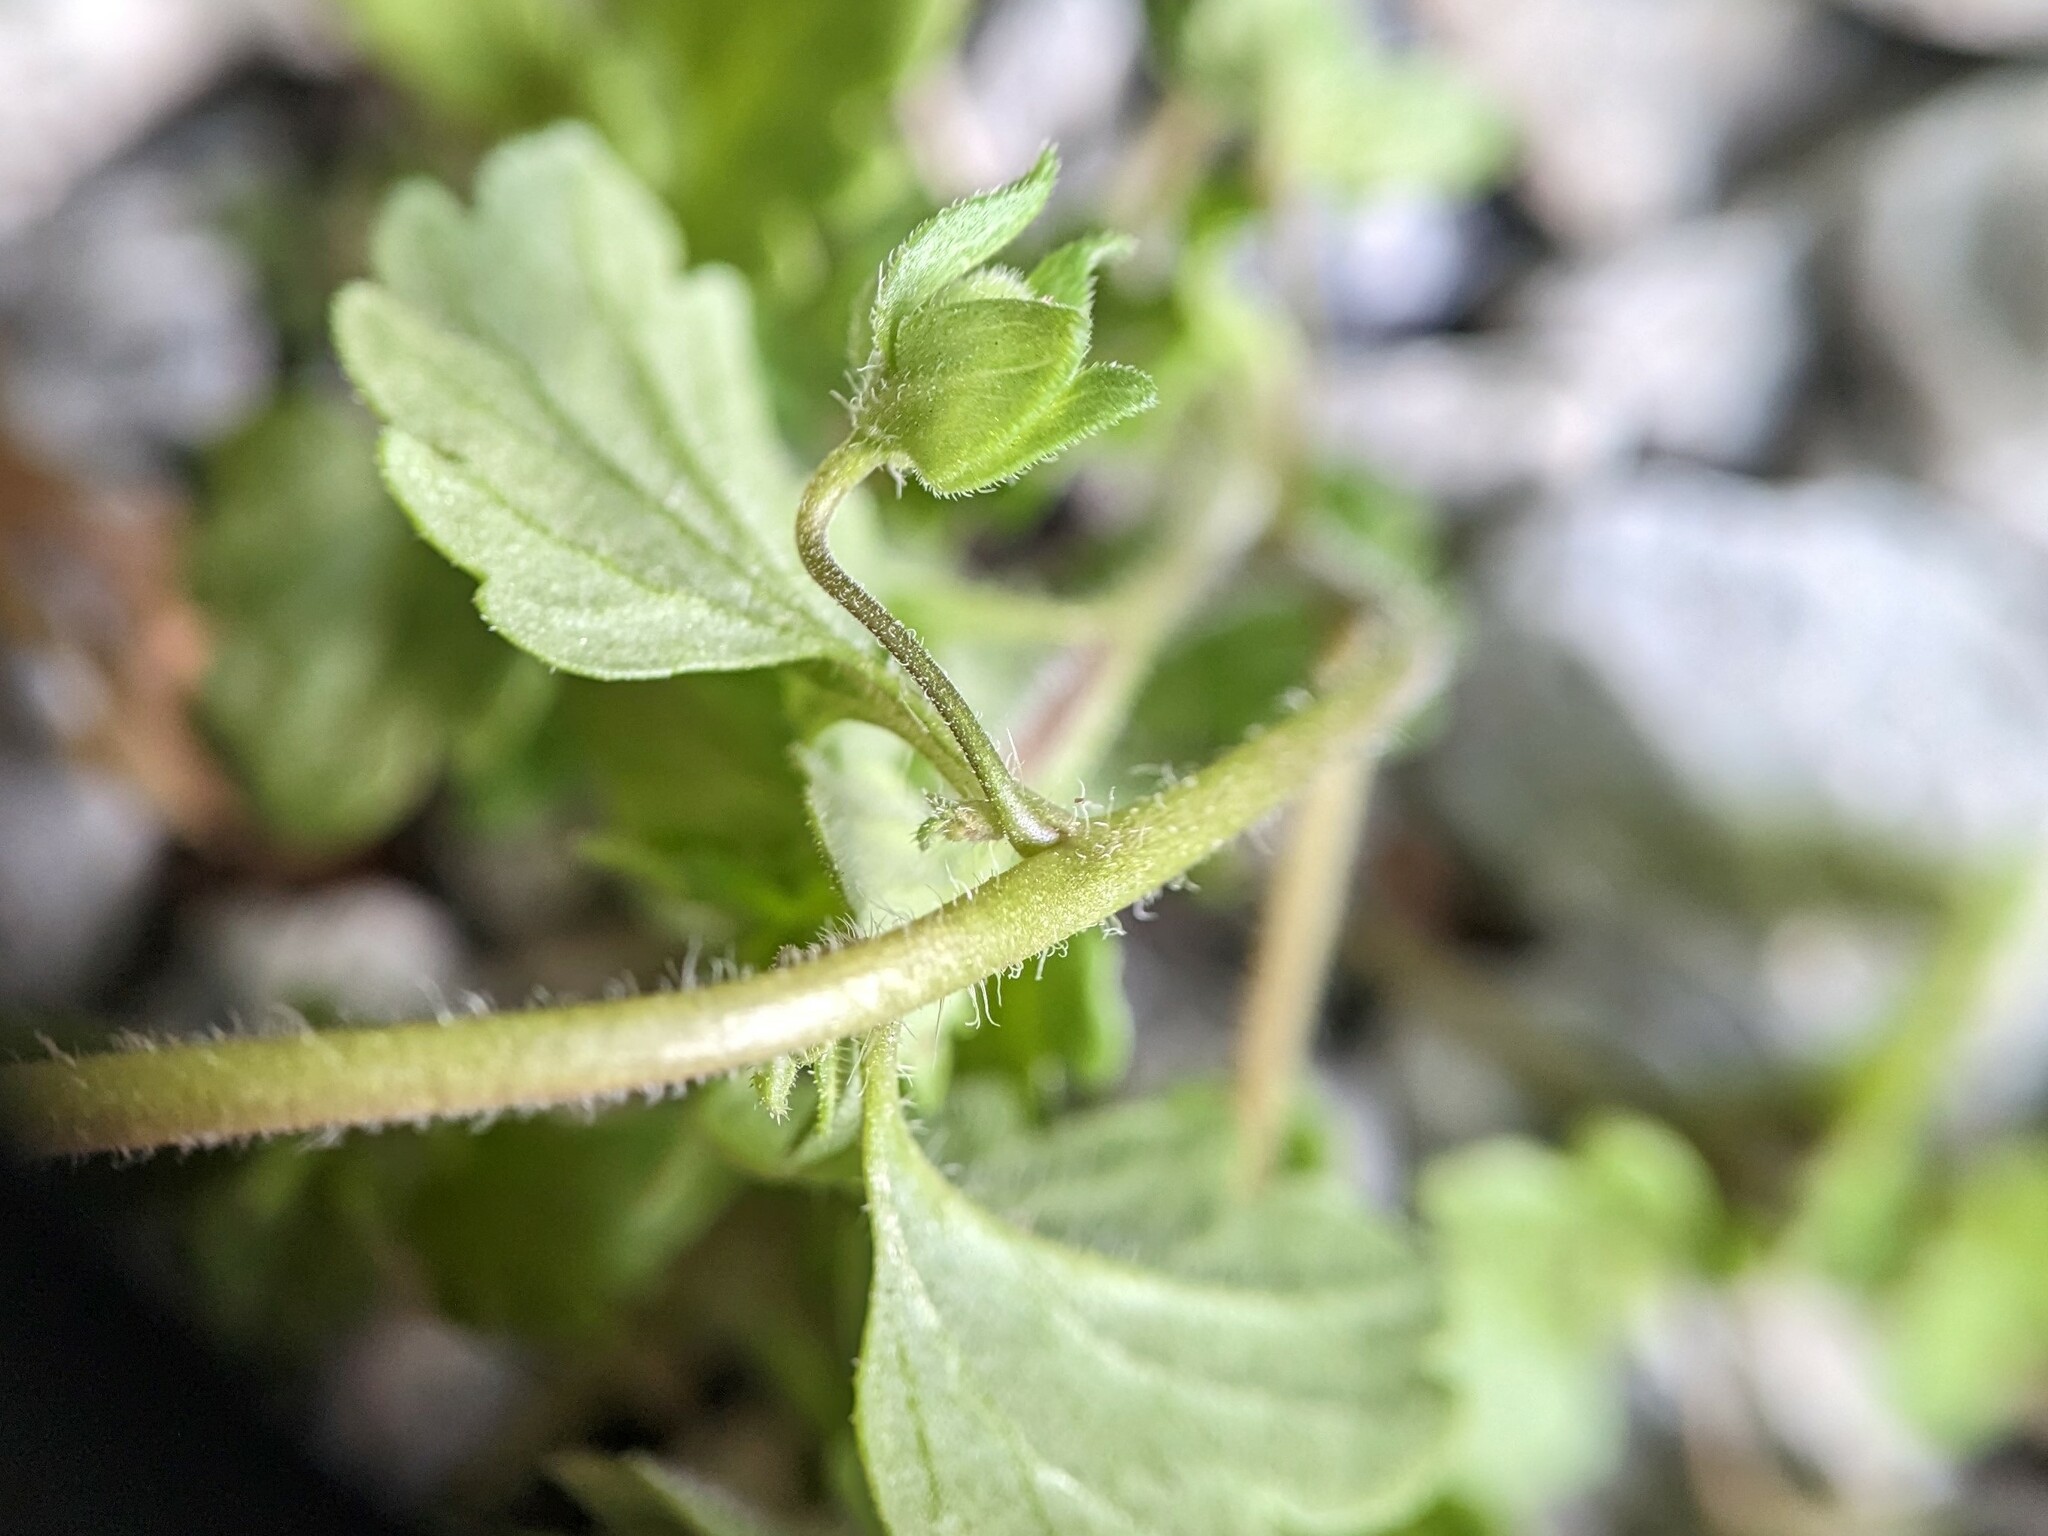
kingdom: Plantae
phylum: Tracheophyta
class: Magnoliopsida
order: Lamiales
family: Plantaginaceae
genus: Veronica
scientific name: Veronica polita
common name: Grey field-speedwell
